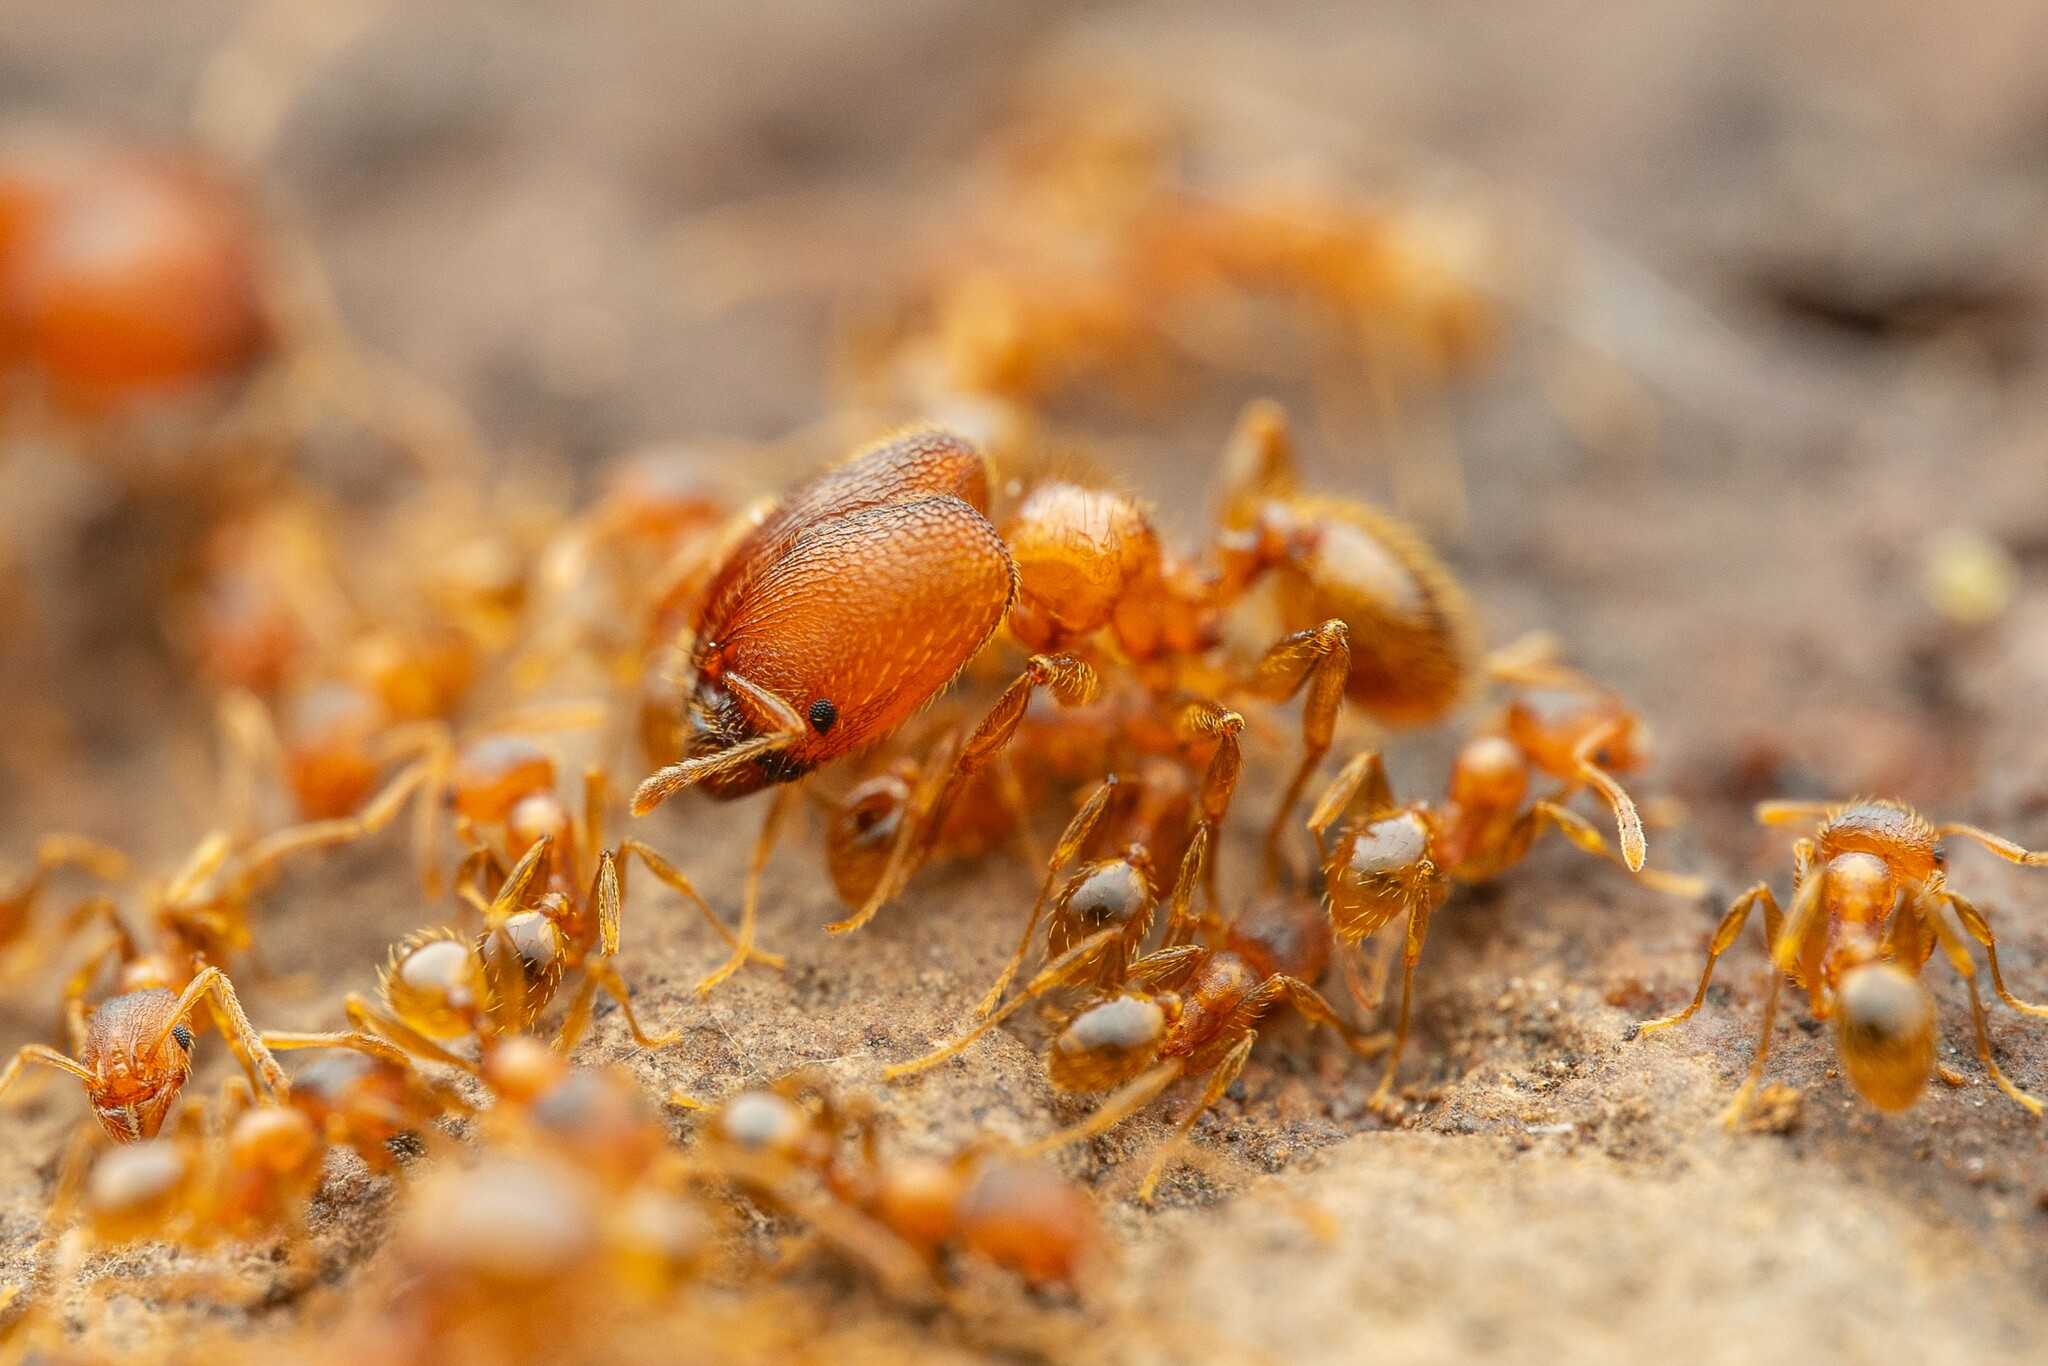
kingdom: Animalia
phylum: Arthropoda
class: Insecta
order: Hymenoptera
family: Formicidae
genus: Pheidole
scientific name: Pheidole
